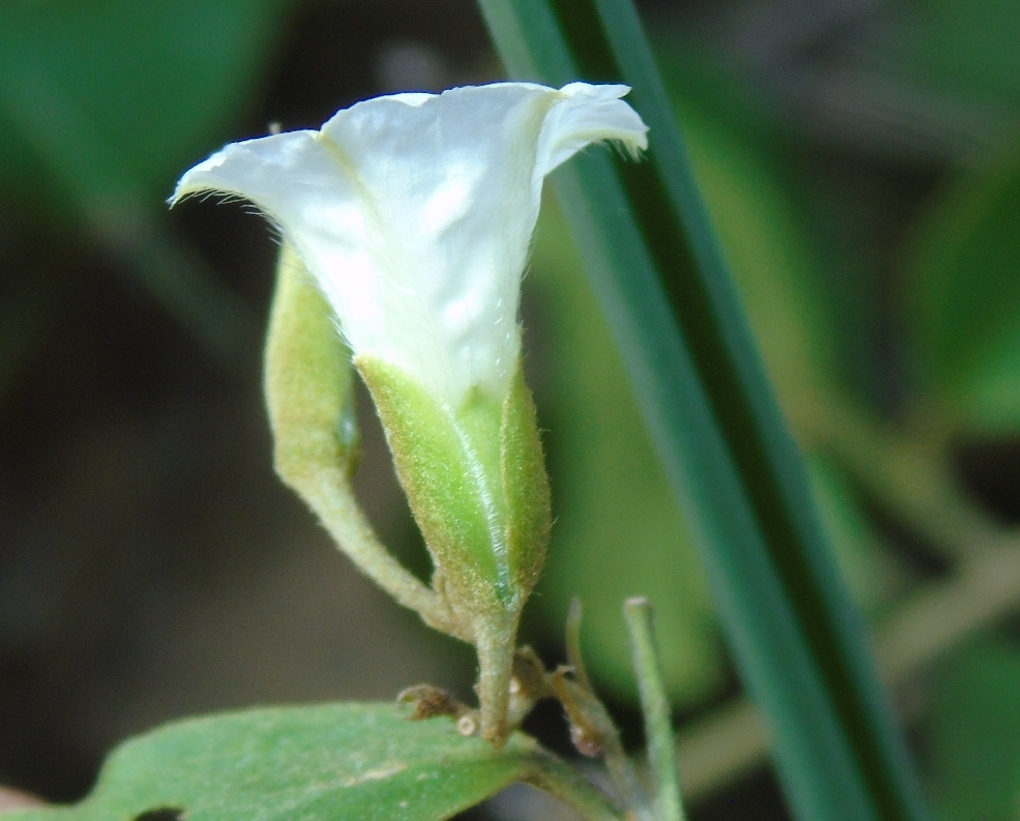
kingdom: Plantae
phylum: Tracheophyta
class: Magnoliopsida
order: Solanales
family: Convolvulaceae
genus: Bonamia
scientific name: Bonamia sulphurea
